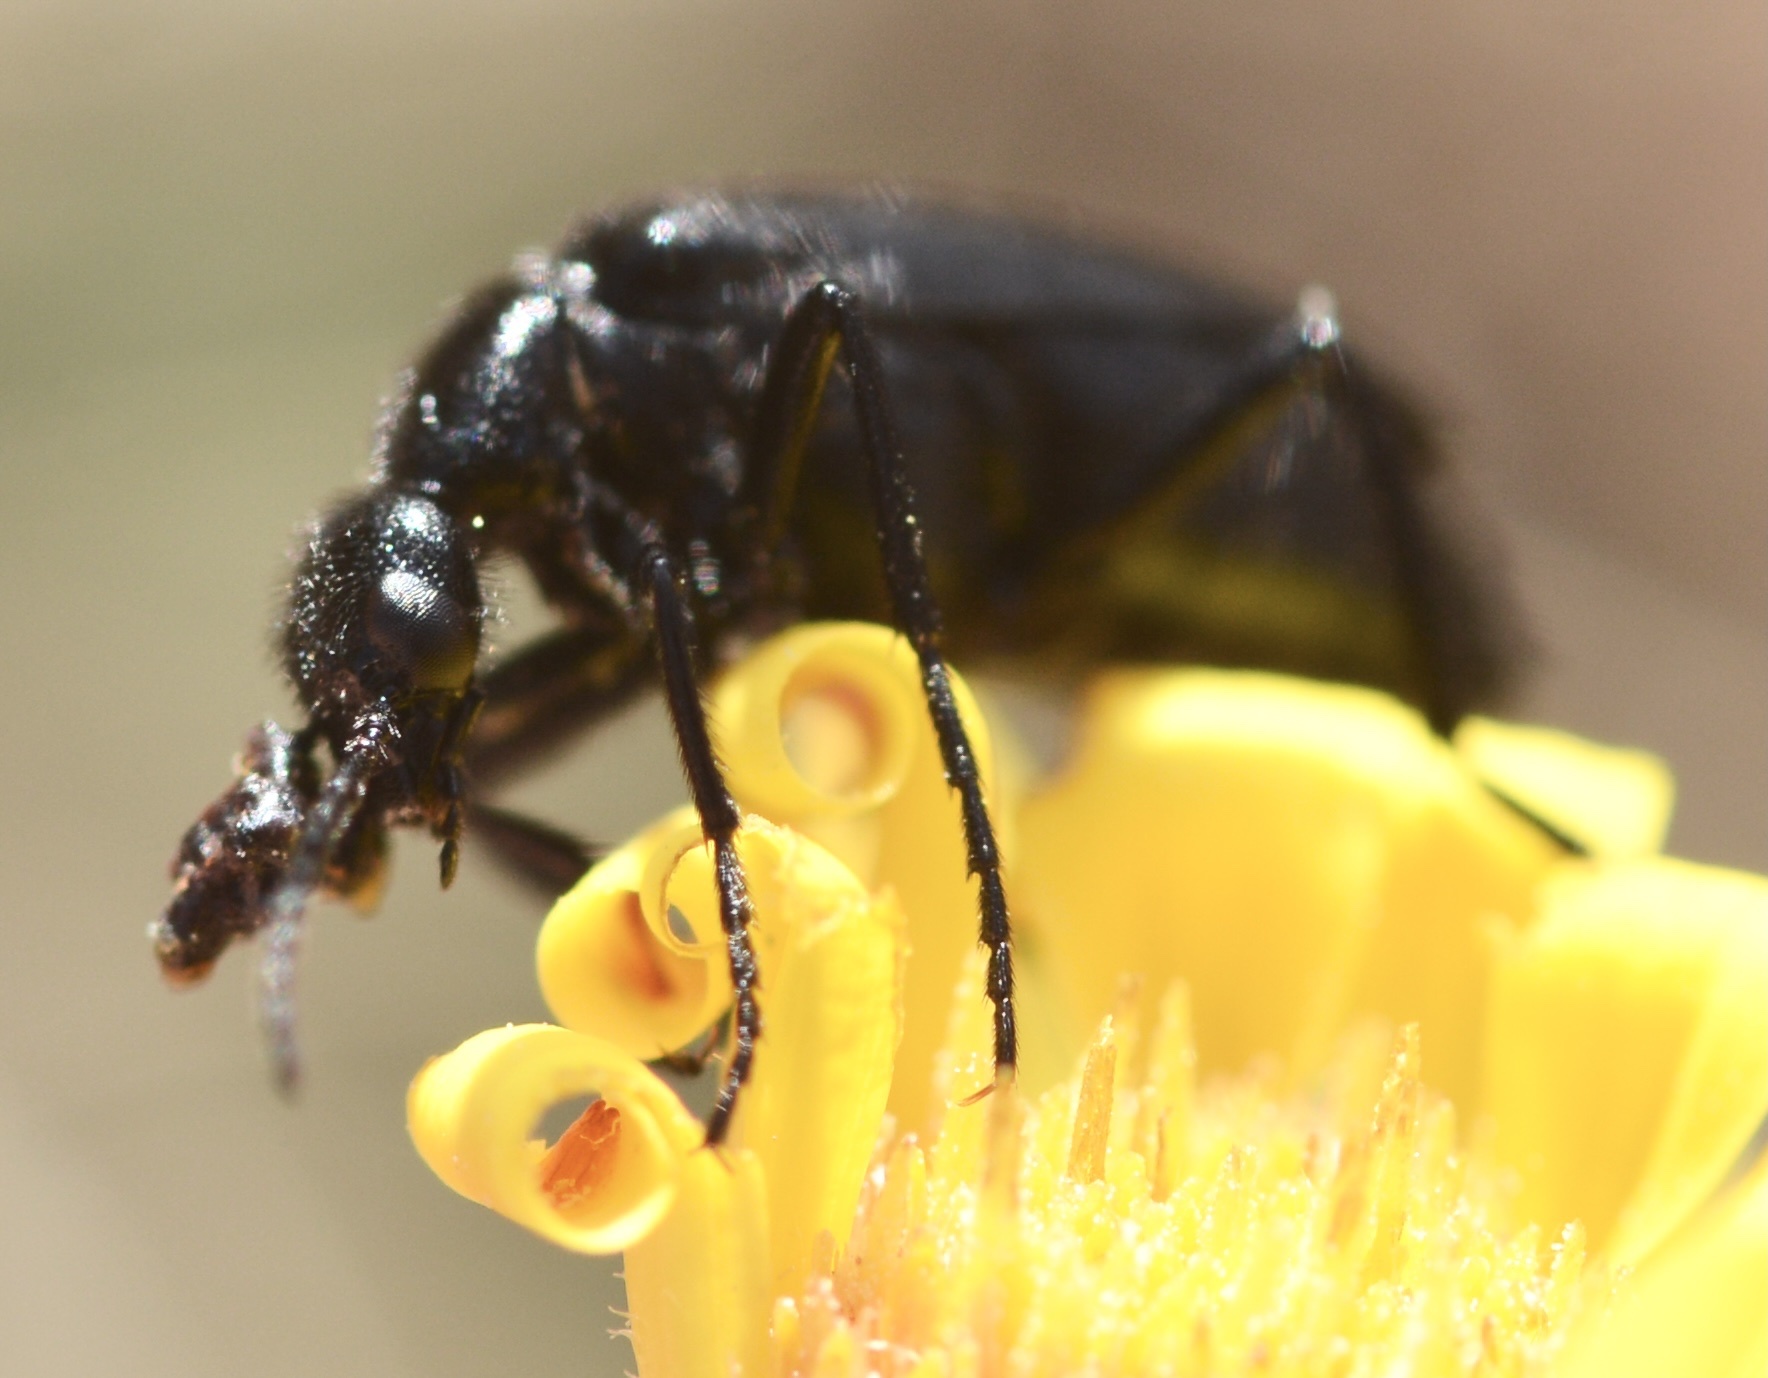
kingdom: Animalia
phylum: Arthropoda
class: Insecta
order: Coleoptera
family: Meloidae
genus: Epicauta
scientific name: Epicauta puncticollis
